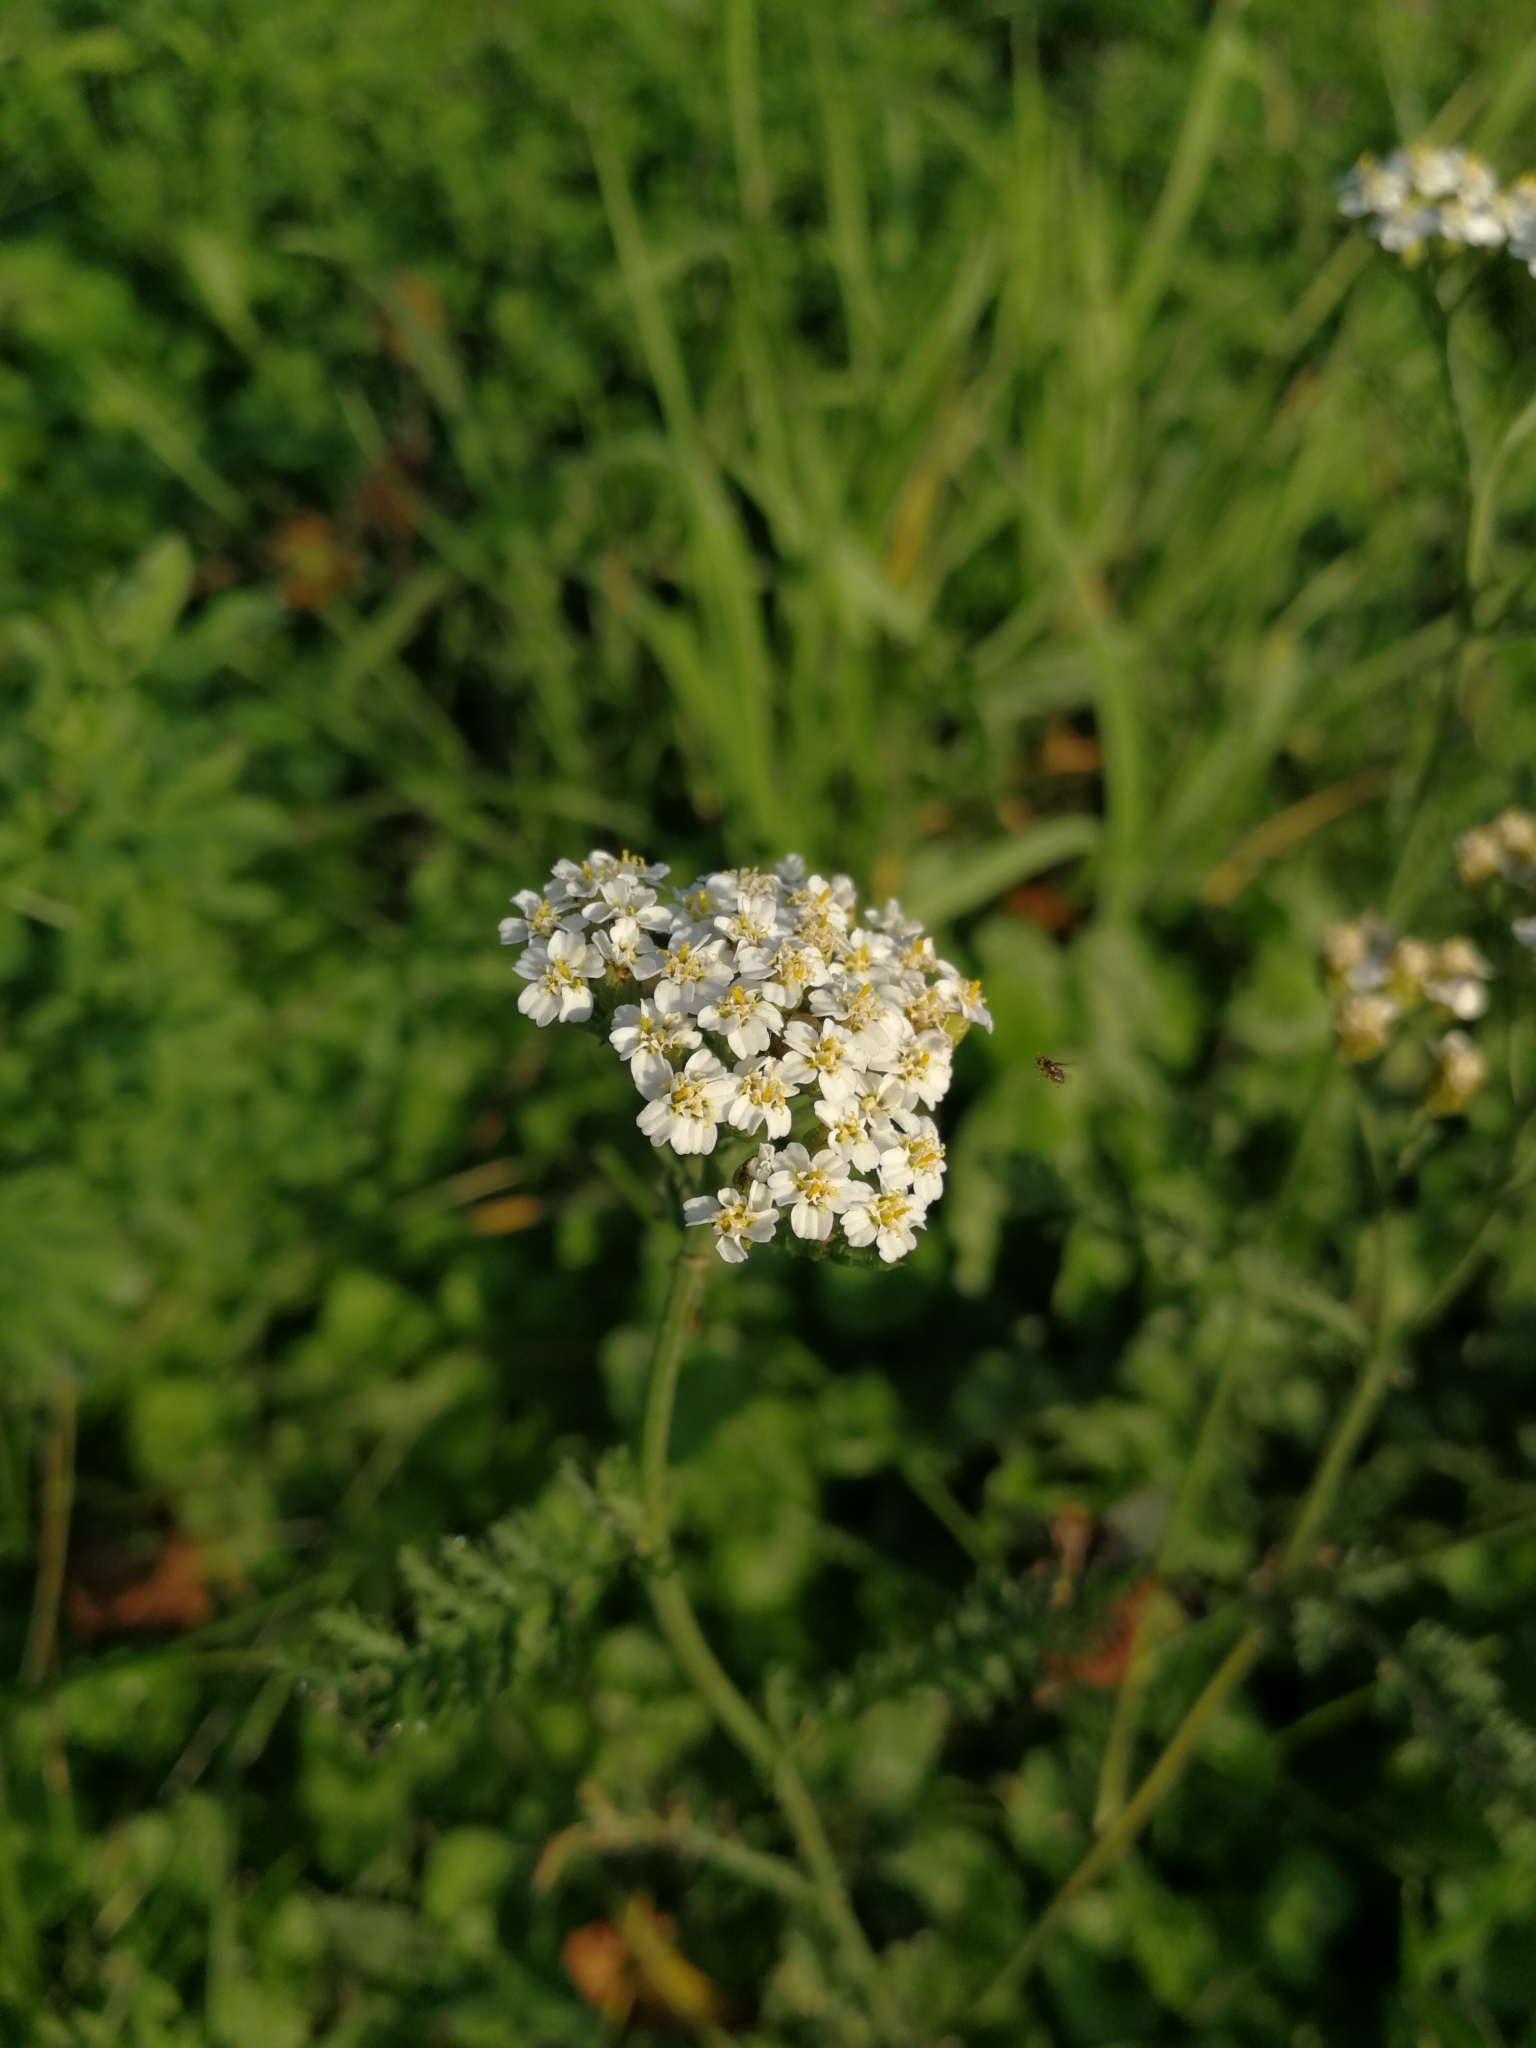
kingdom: Plantae
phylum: Tracheophyta
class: Magnoliopsida
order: Asterales
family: Asteraceae
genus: Achillea
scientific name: Achillea millefolium
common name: Yarrow
